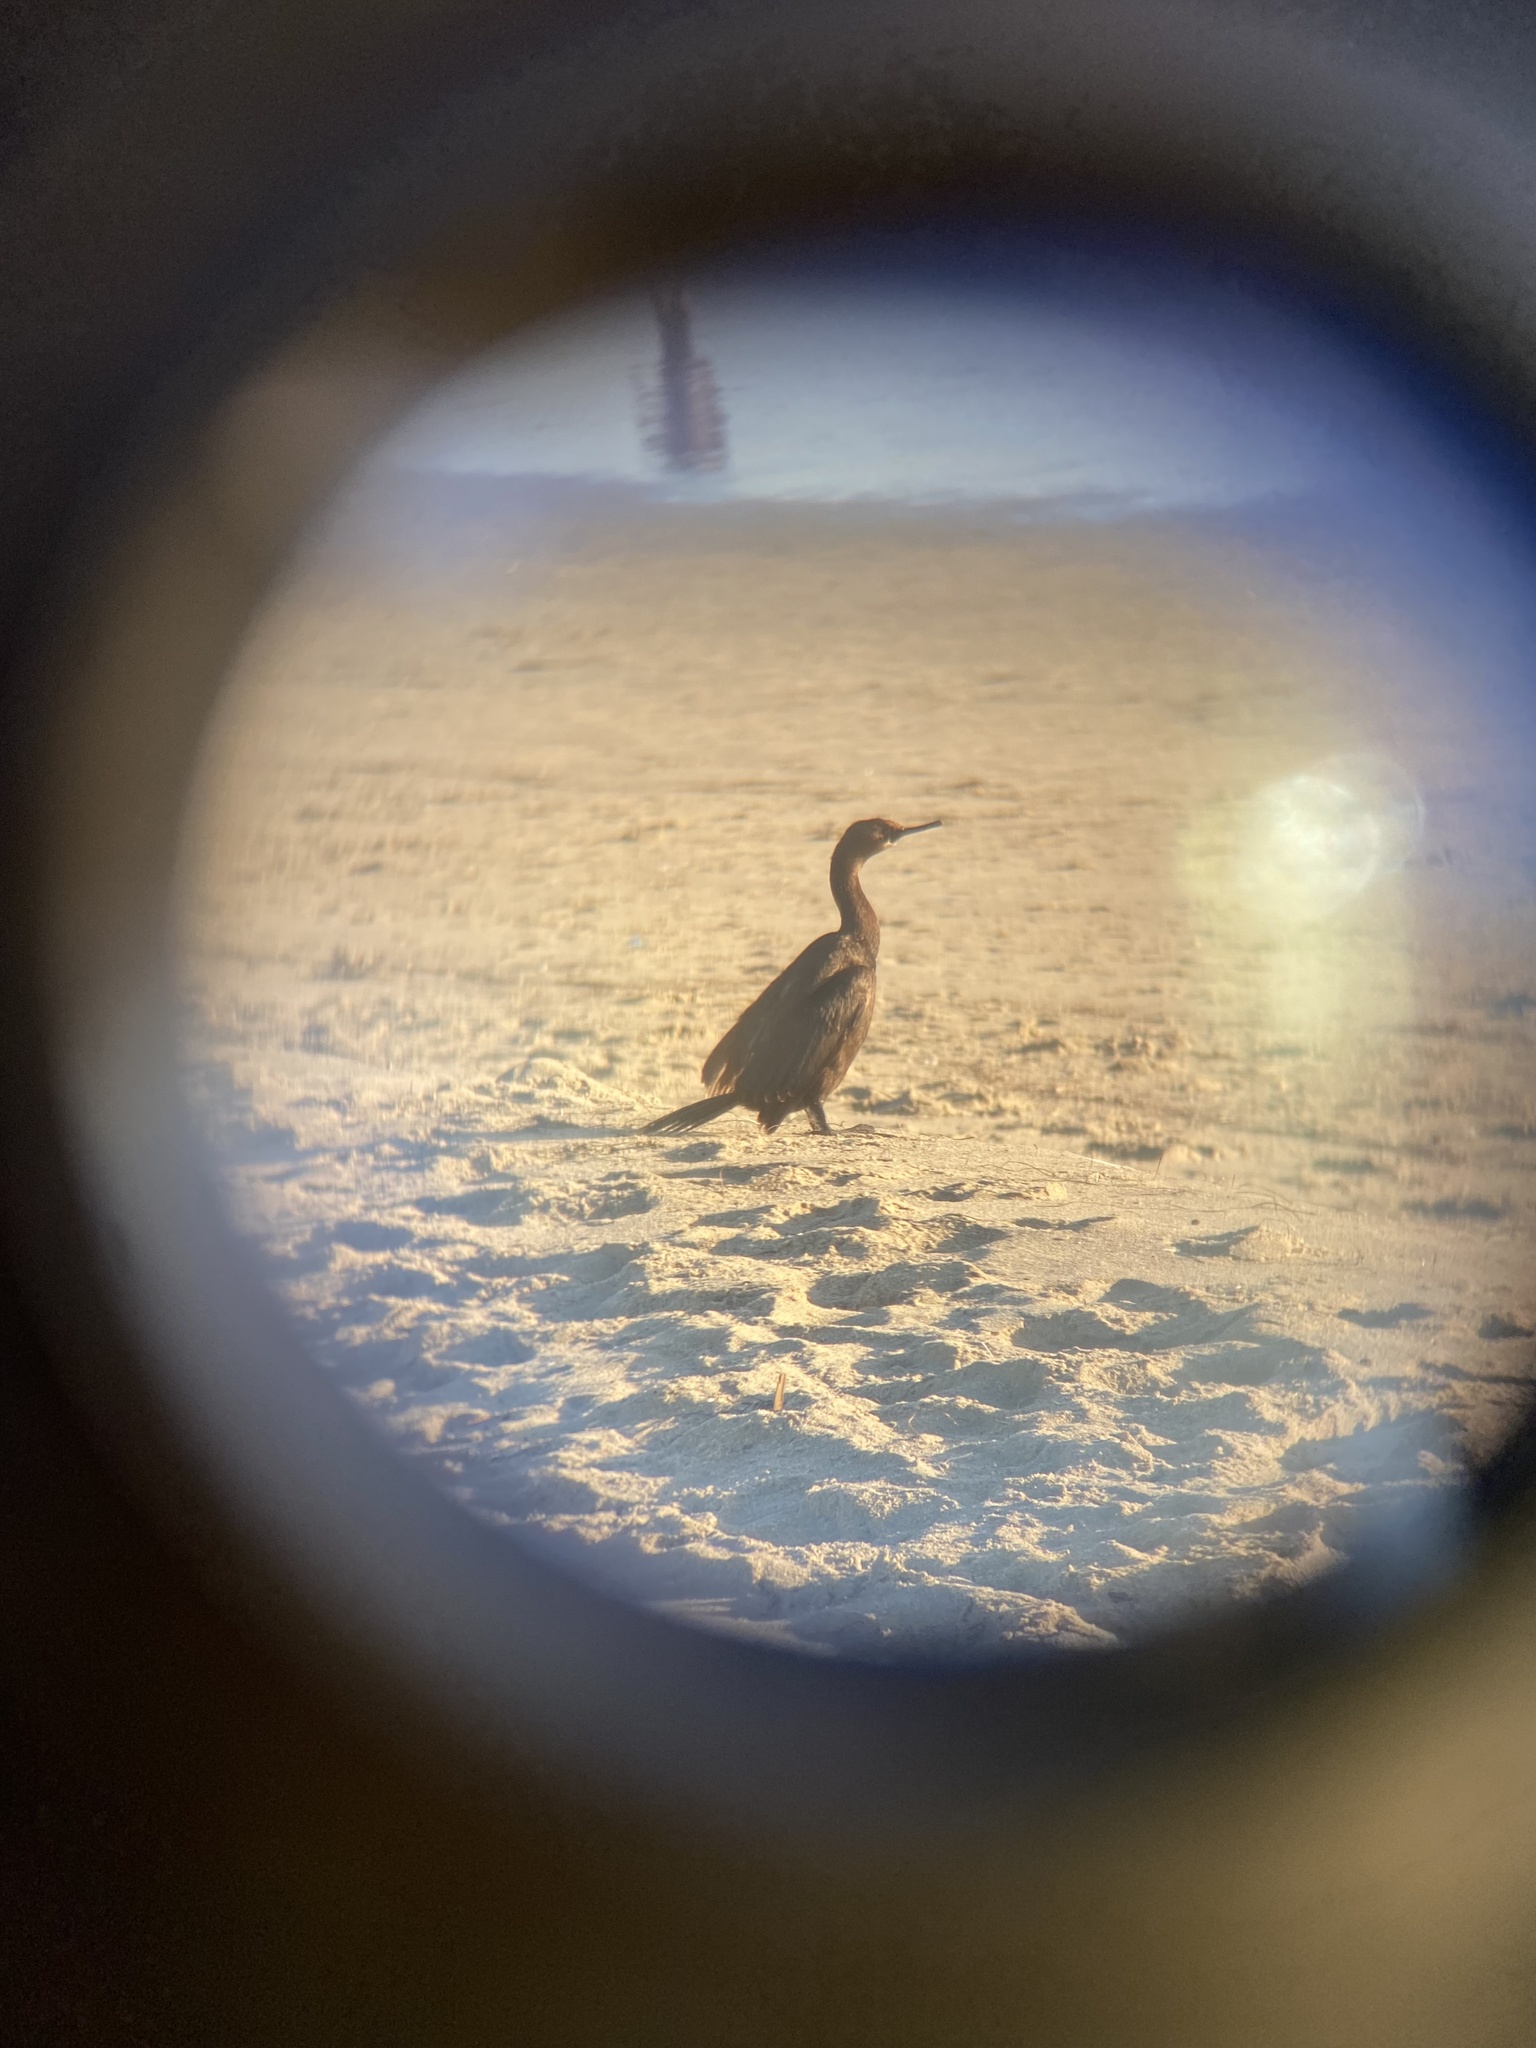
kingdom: Animalia
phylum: Chordata
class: Aves
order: Suliformes
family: Phalacrocoracidae
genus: Phalacrocorax
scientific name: Phalacrocorax pelagicus
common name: Pelagic cormorant
